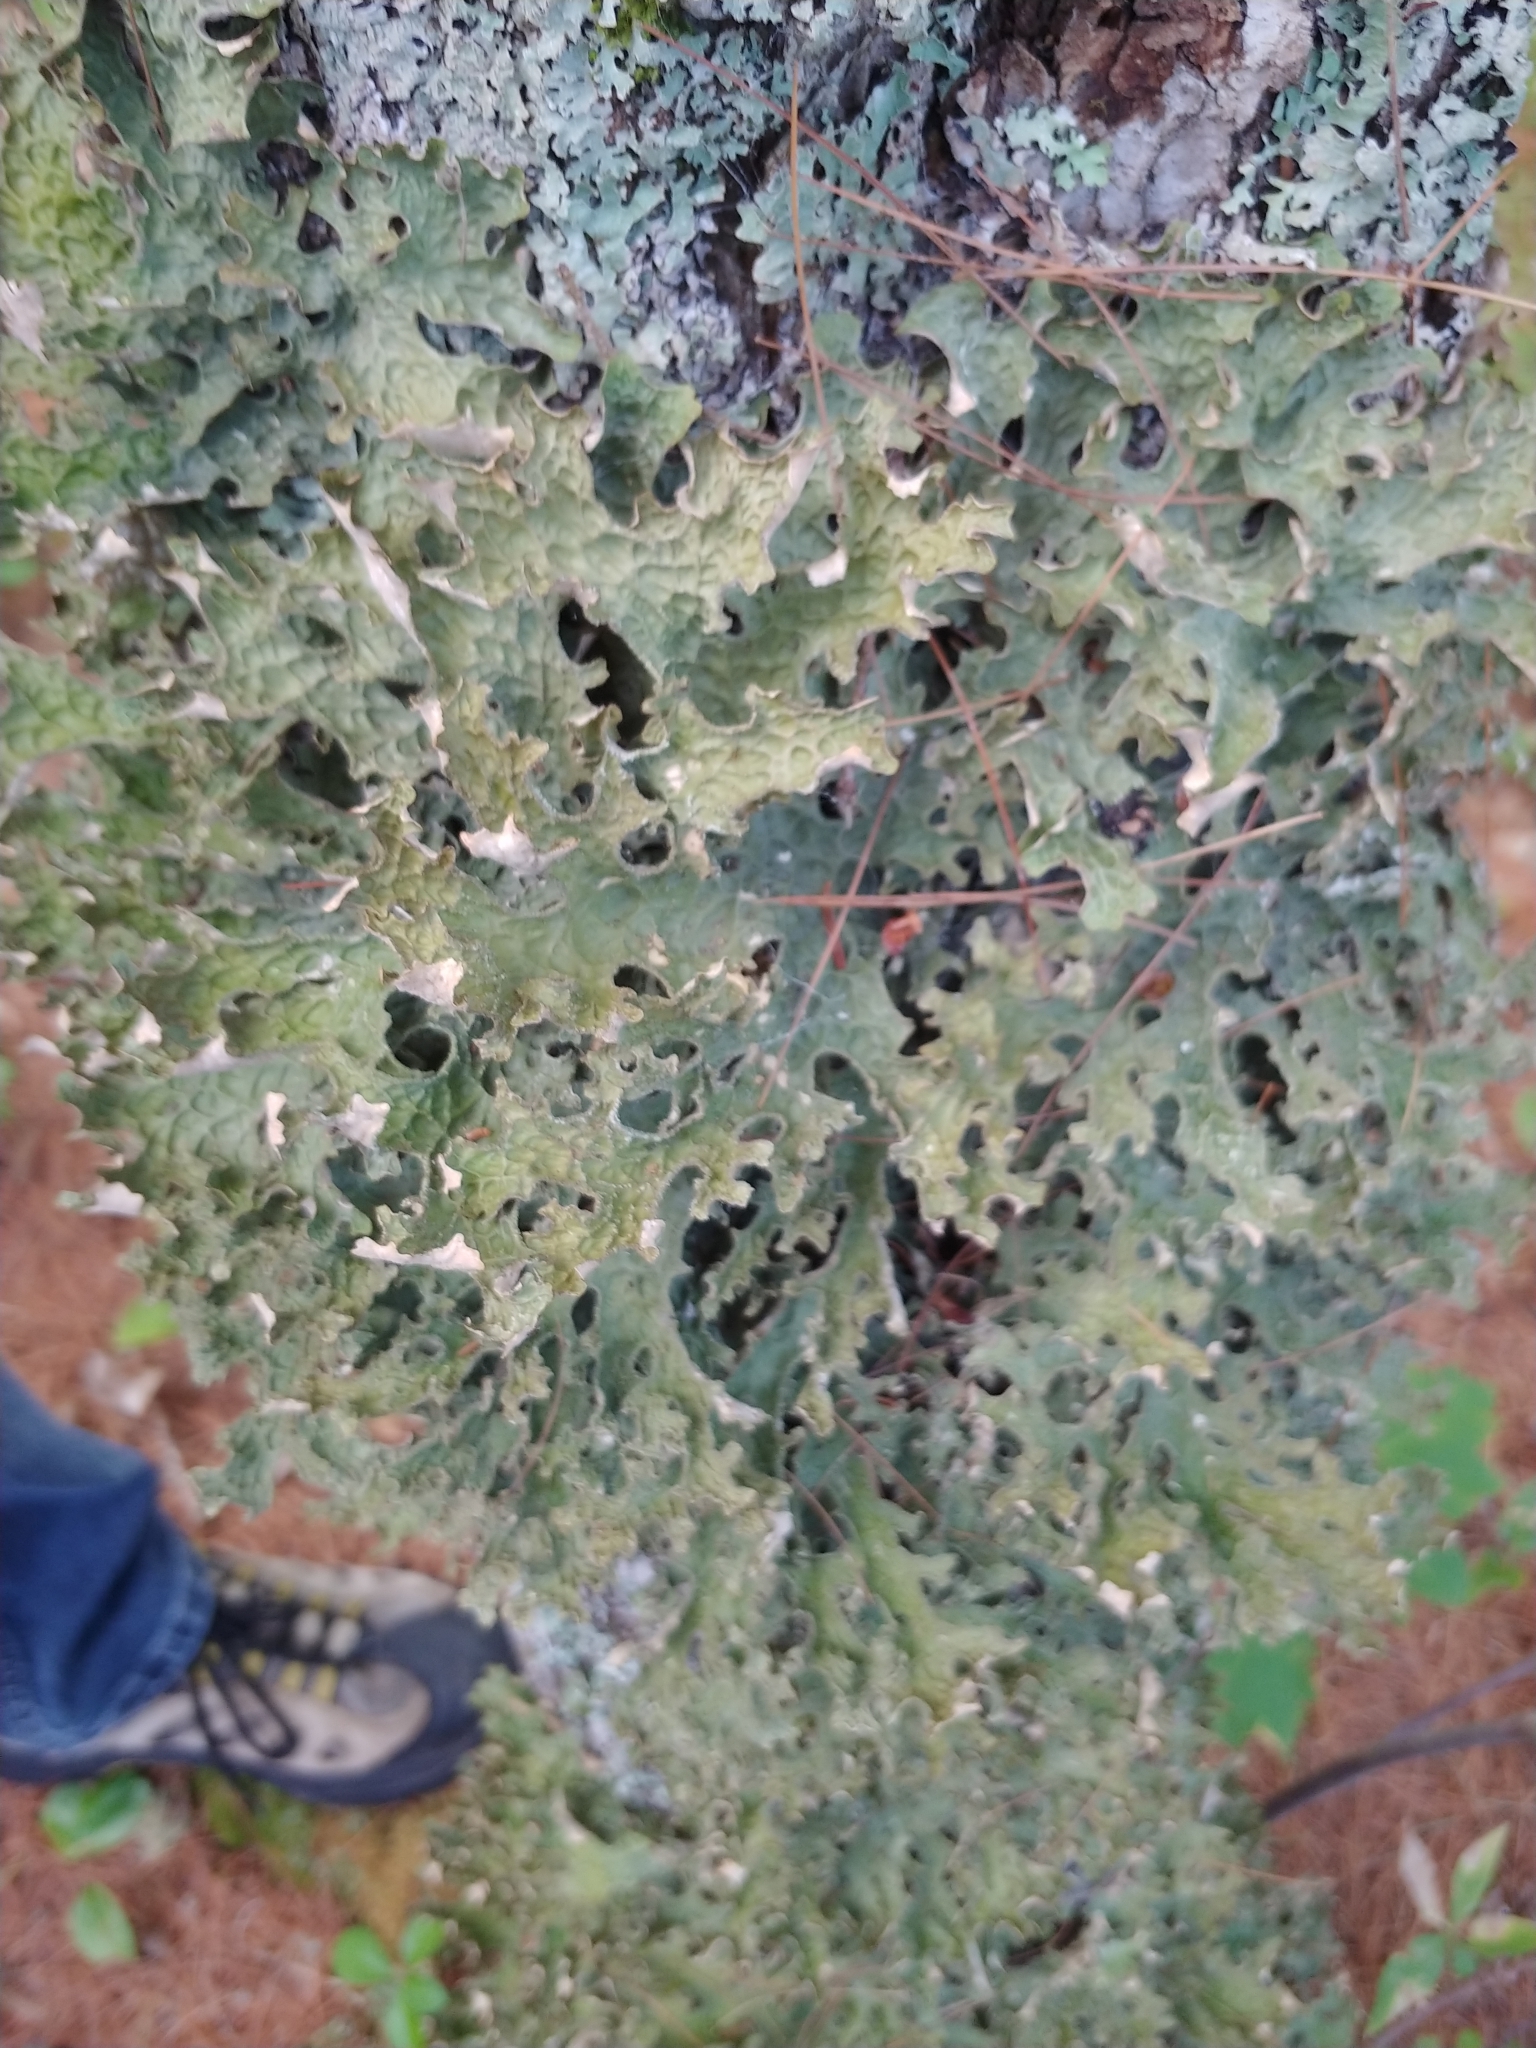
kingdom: Fungi
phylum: Ascomycota
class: Lecanoromycetes
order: Peltigerales
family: Lobariaceae
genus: Lobaria
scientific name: Lobaria pulmonaria
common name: Lungwort
